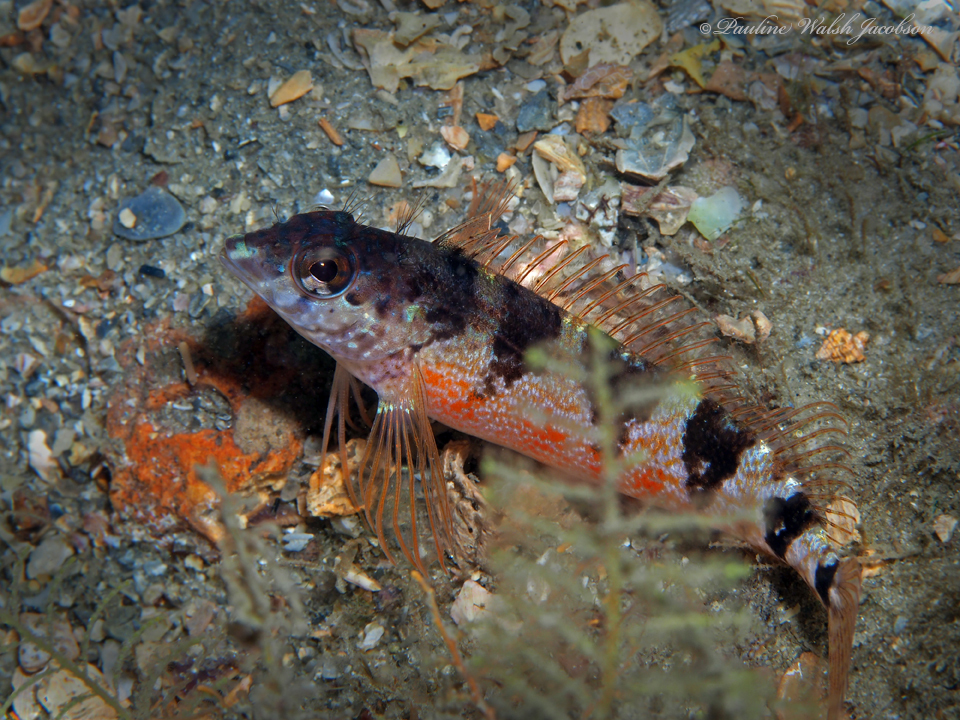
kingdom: Animalia
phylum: Chordata
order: Perciformes
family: Labrisomidae
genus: Malacoctenus
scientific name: Malacoctenus triangulatus
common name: Saddled blenny
